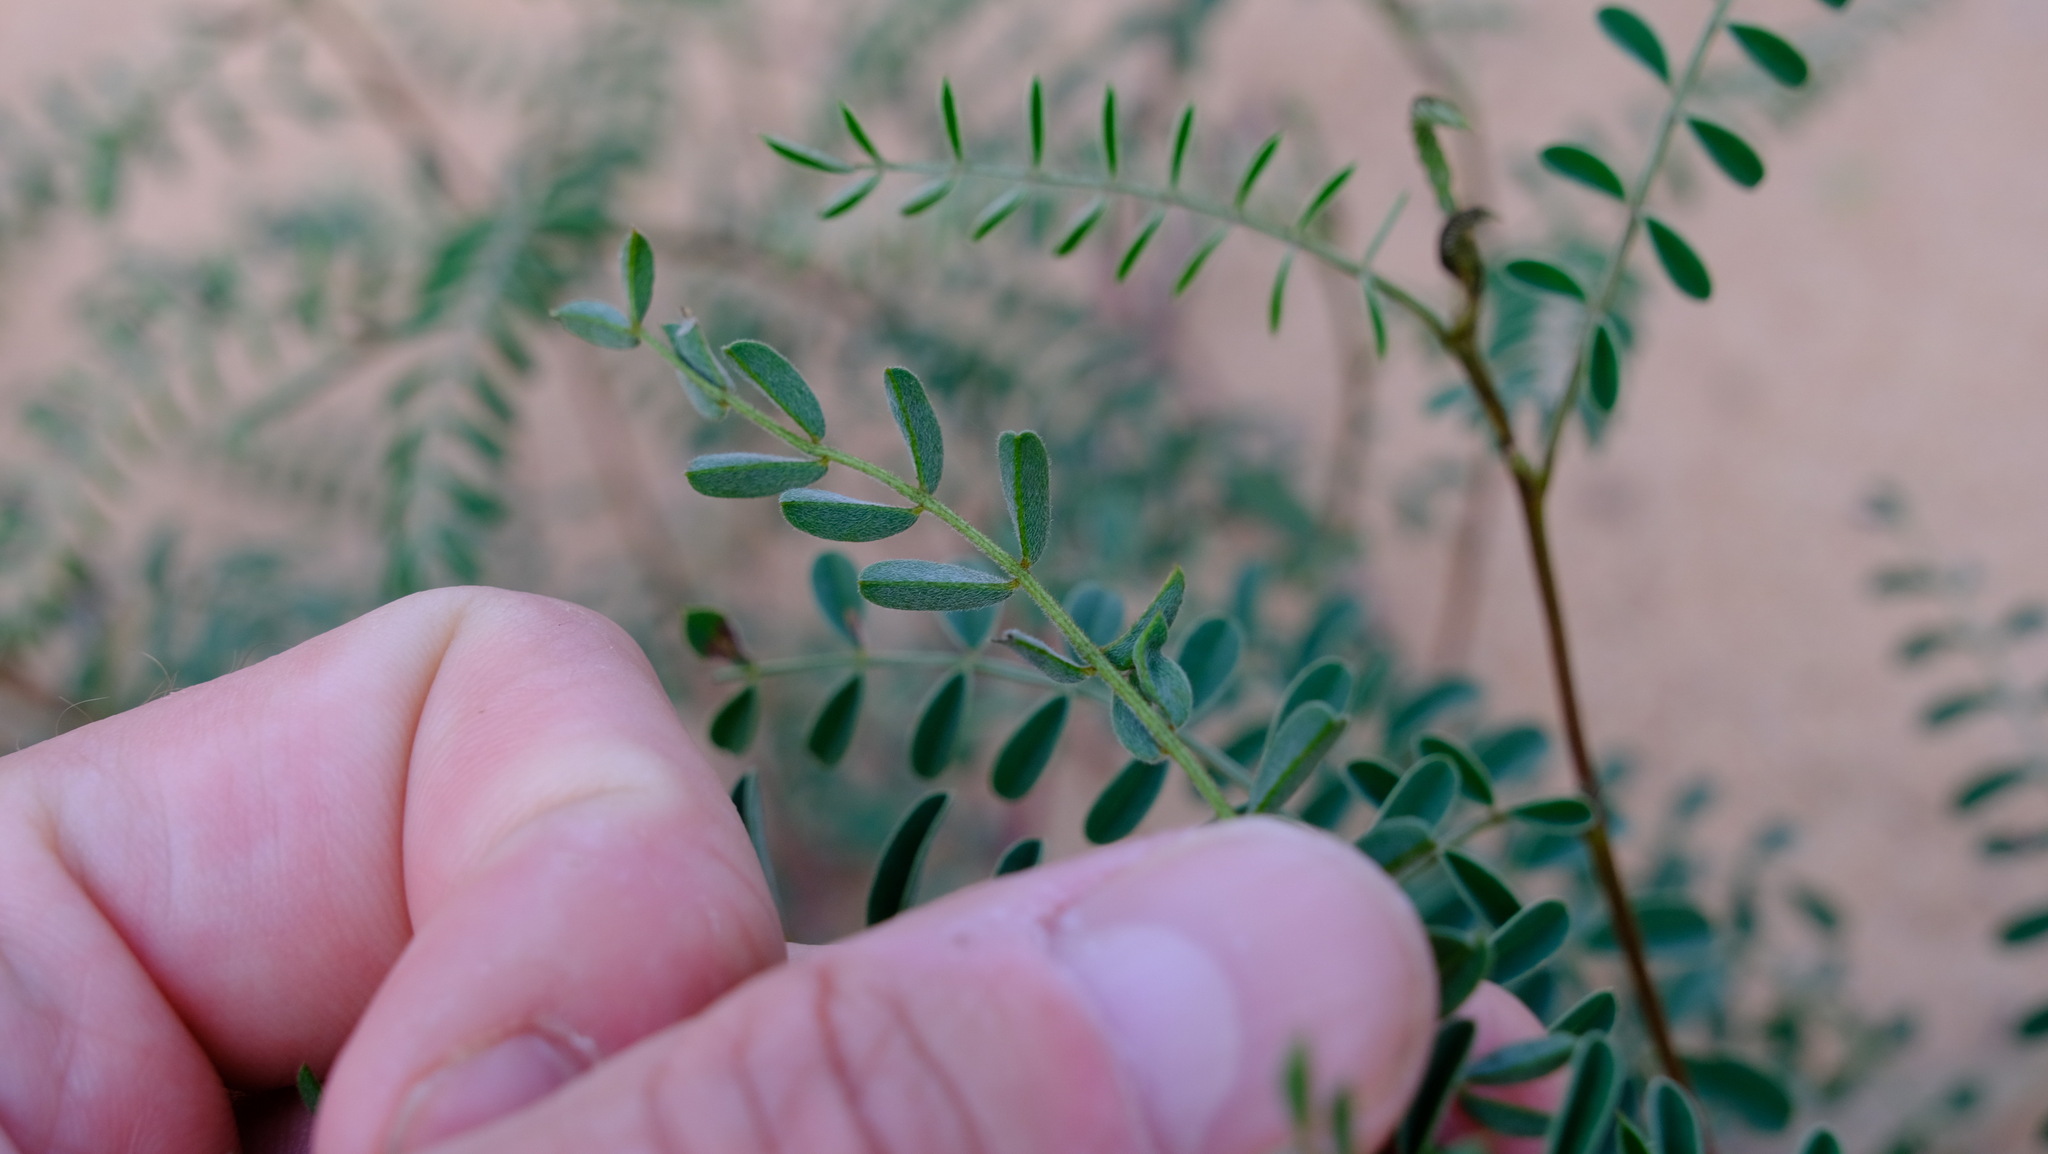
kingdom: Plantae
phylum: Tracheophyta
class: Magnoliopsida
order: Fabales
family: Fabaceae
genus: Indigofera
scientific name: Indigofera occidentalis
